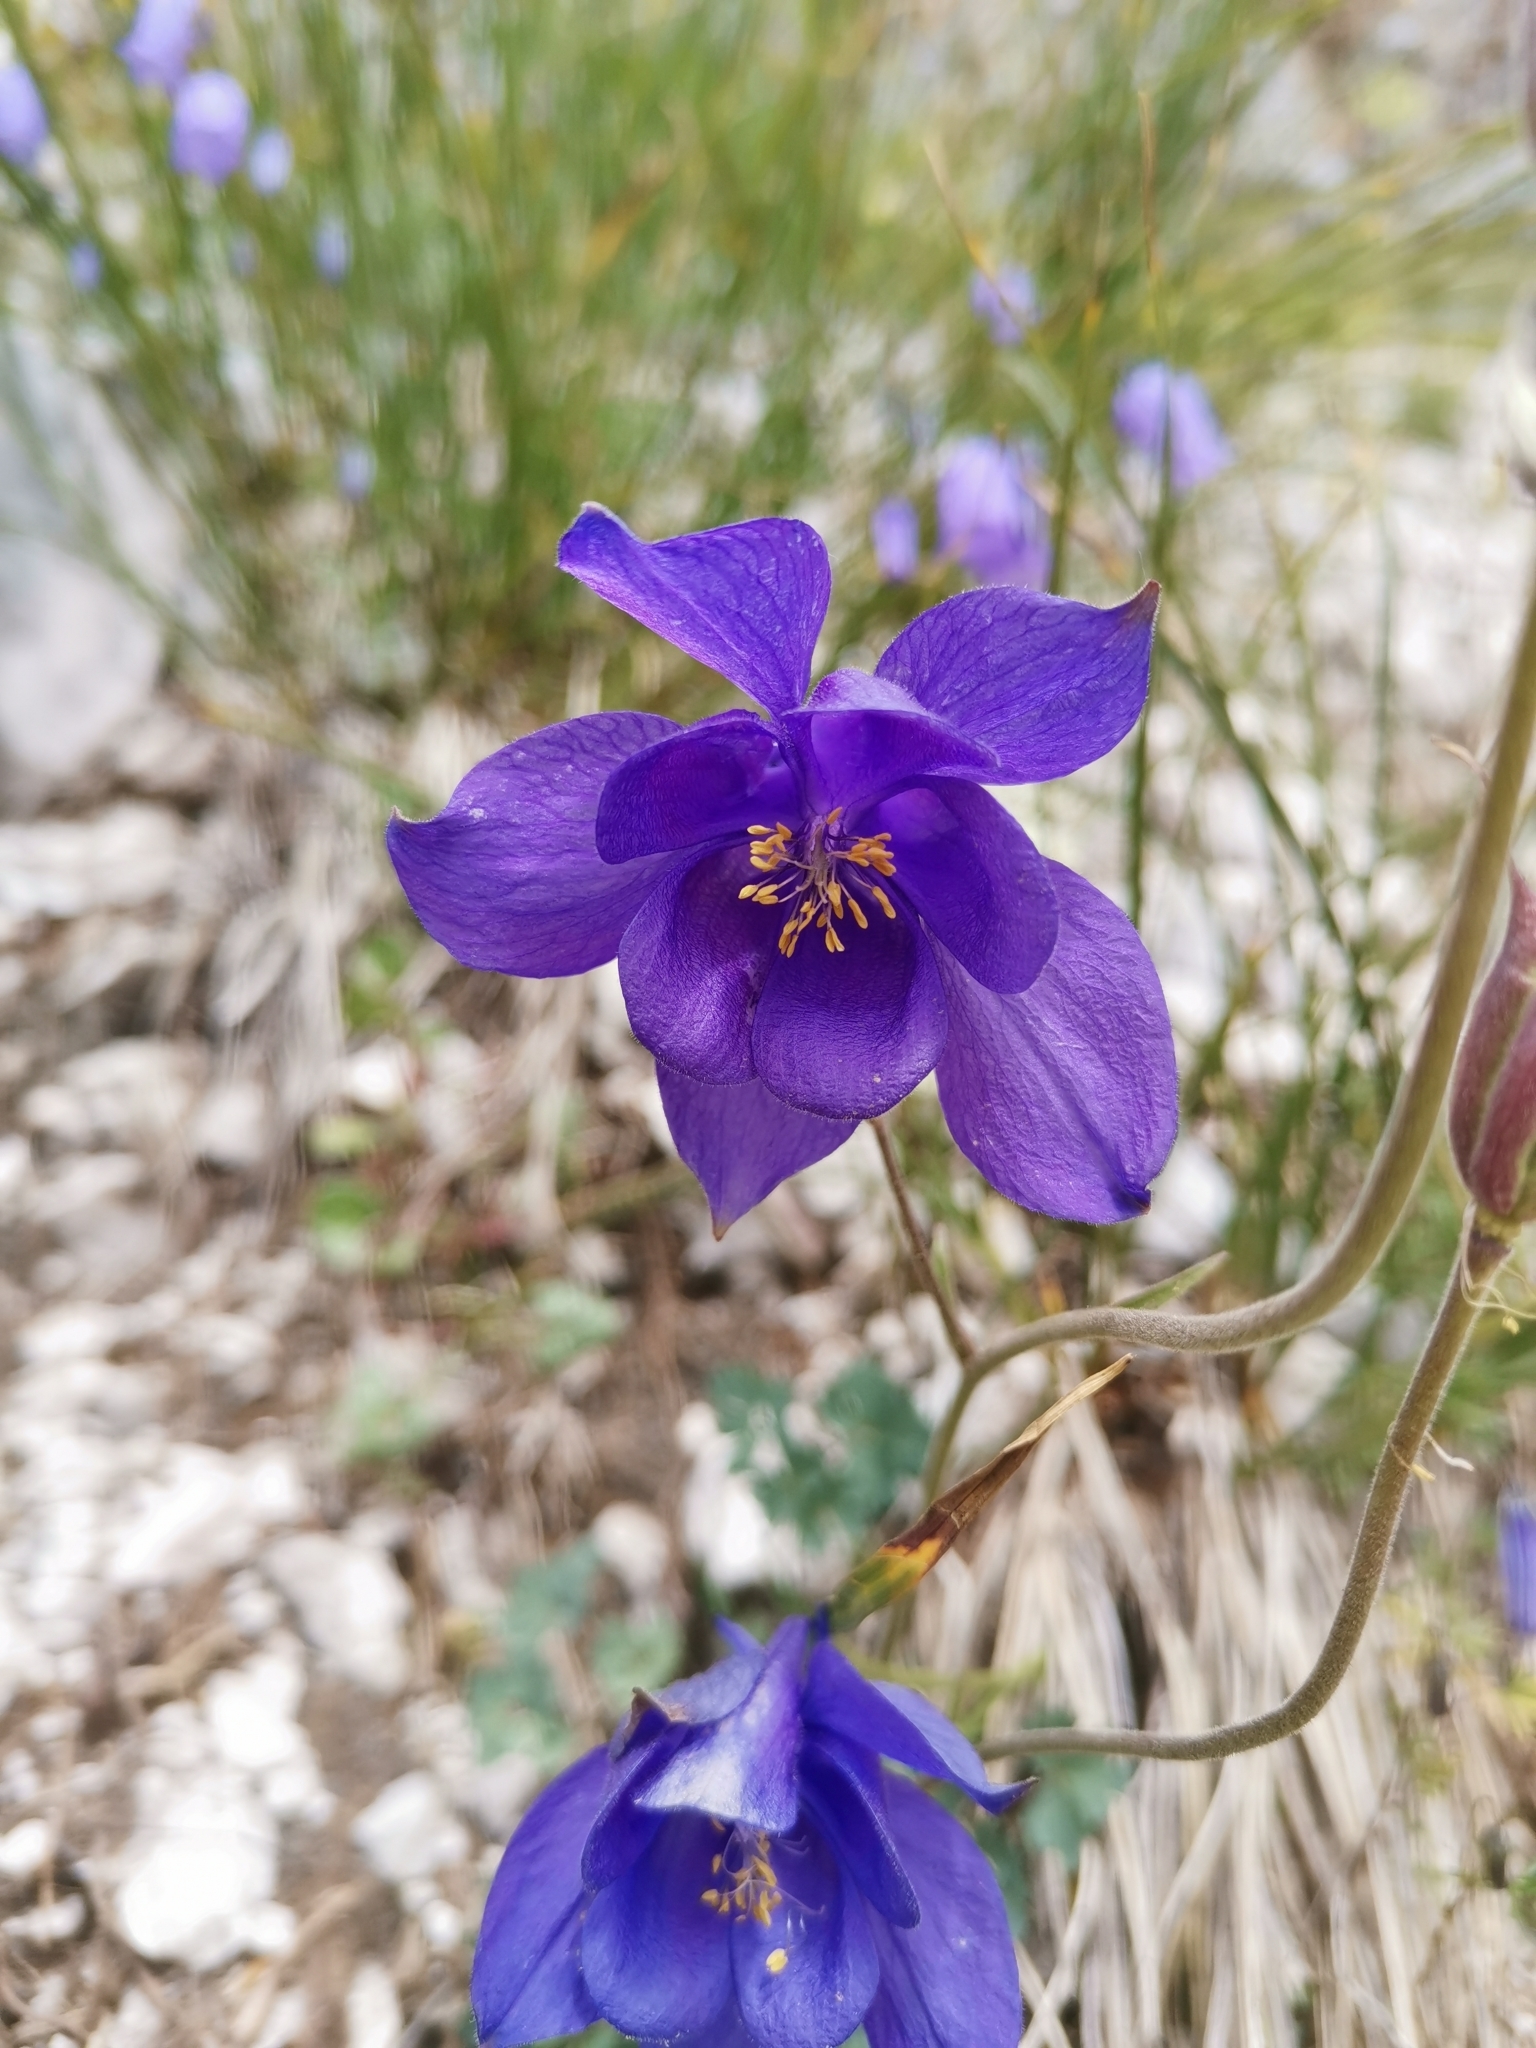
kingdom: Plantae
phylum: Tracheophyta
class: Magnoliopsida
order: Ranunculales
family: Ranunculaceae
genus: Aquilegia
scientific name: Aquilegia iulia
